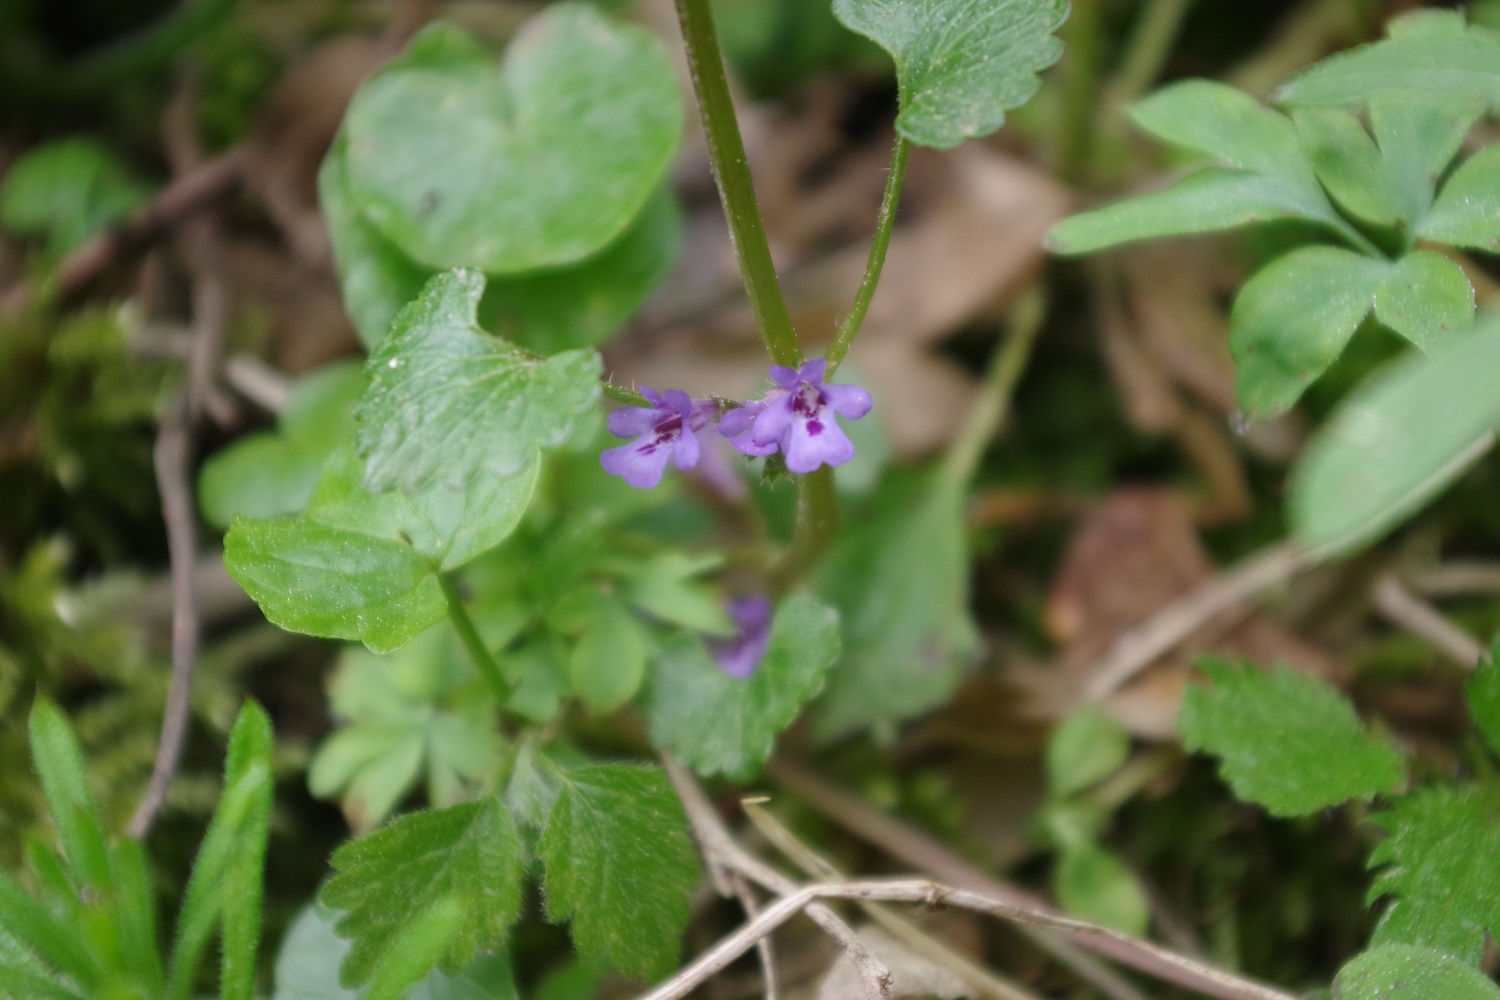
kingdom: Plantae
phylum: Tracheophyta
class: Magnoliopsida
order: Lamiales
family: Lamiaceae
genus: Glechoma
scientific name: Glechoma hederacea
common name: Ground ivy
